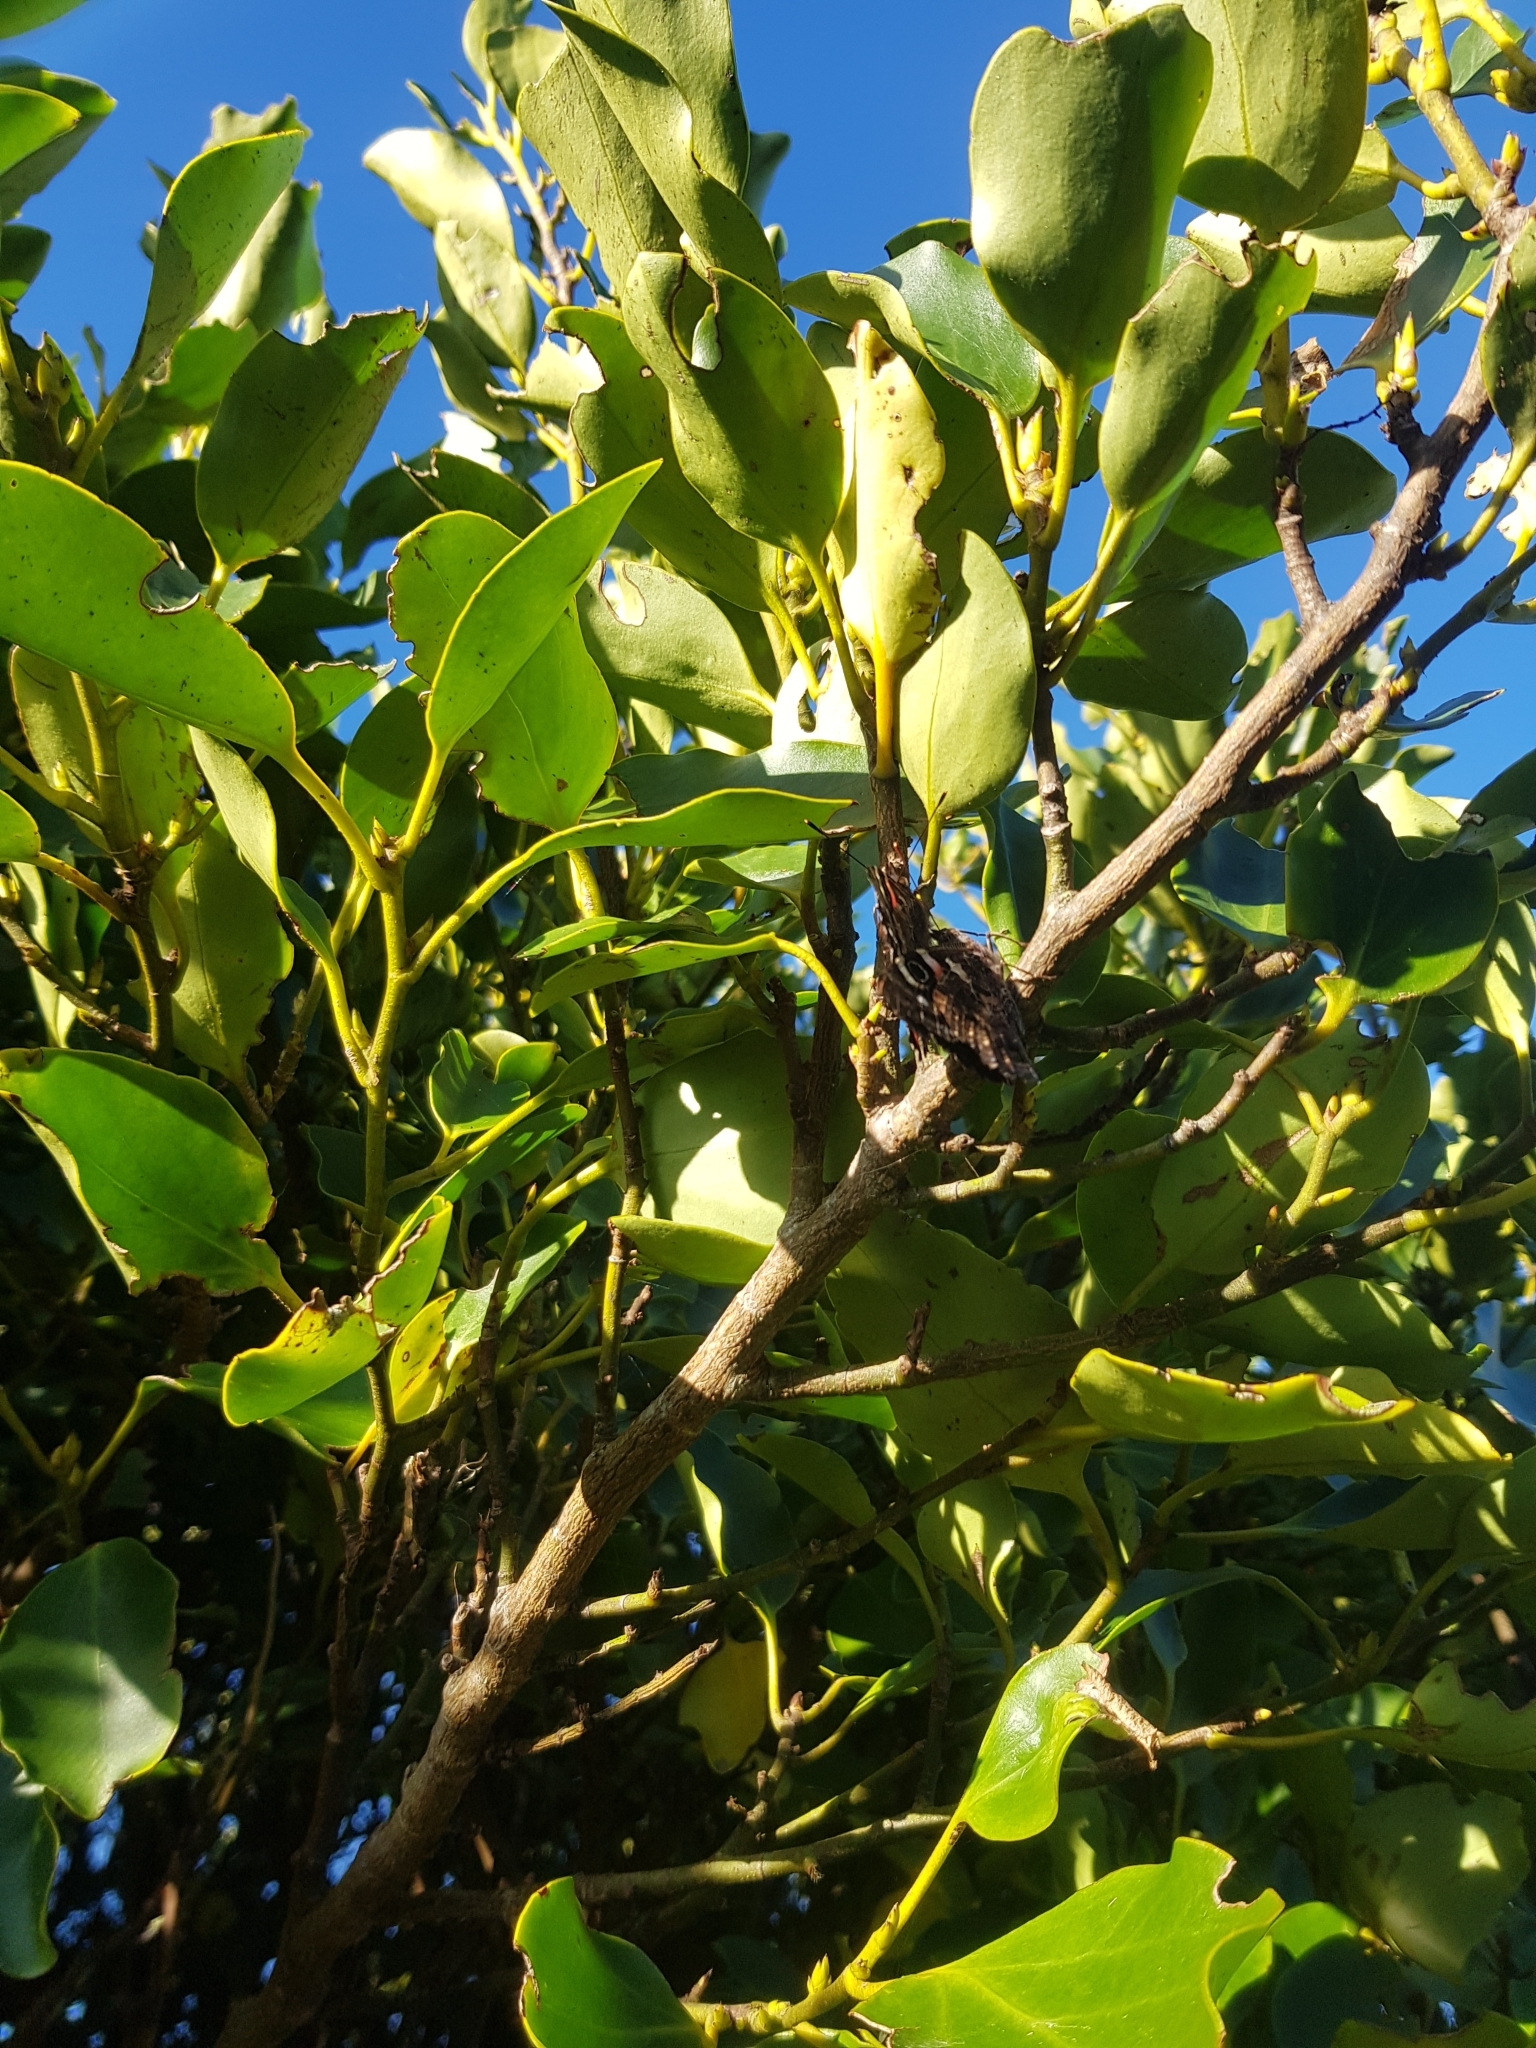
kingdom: Animalia
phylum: Arthropoda
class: Insecta
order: Lepidoptera
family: Nymphalidae
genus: Vanessa
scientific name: Vanessa gonerilla
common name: New zealand red admiral
